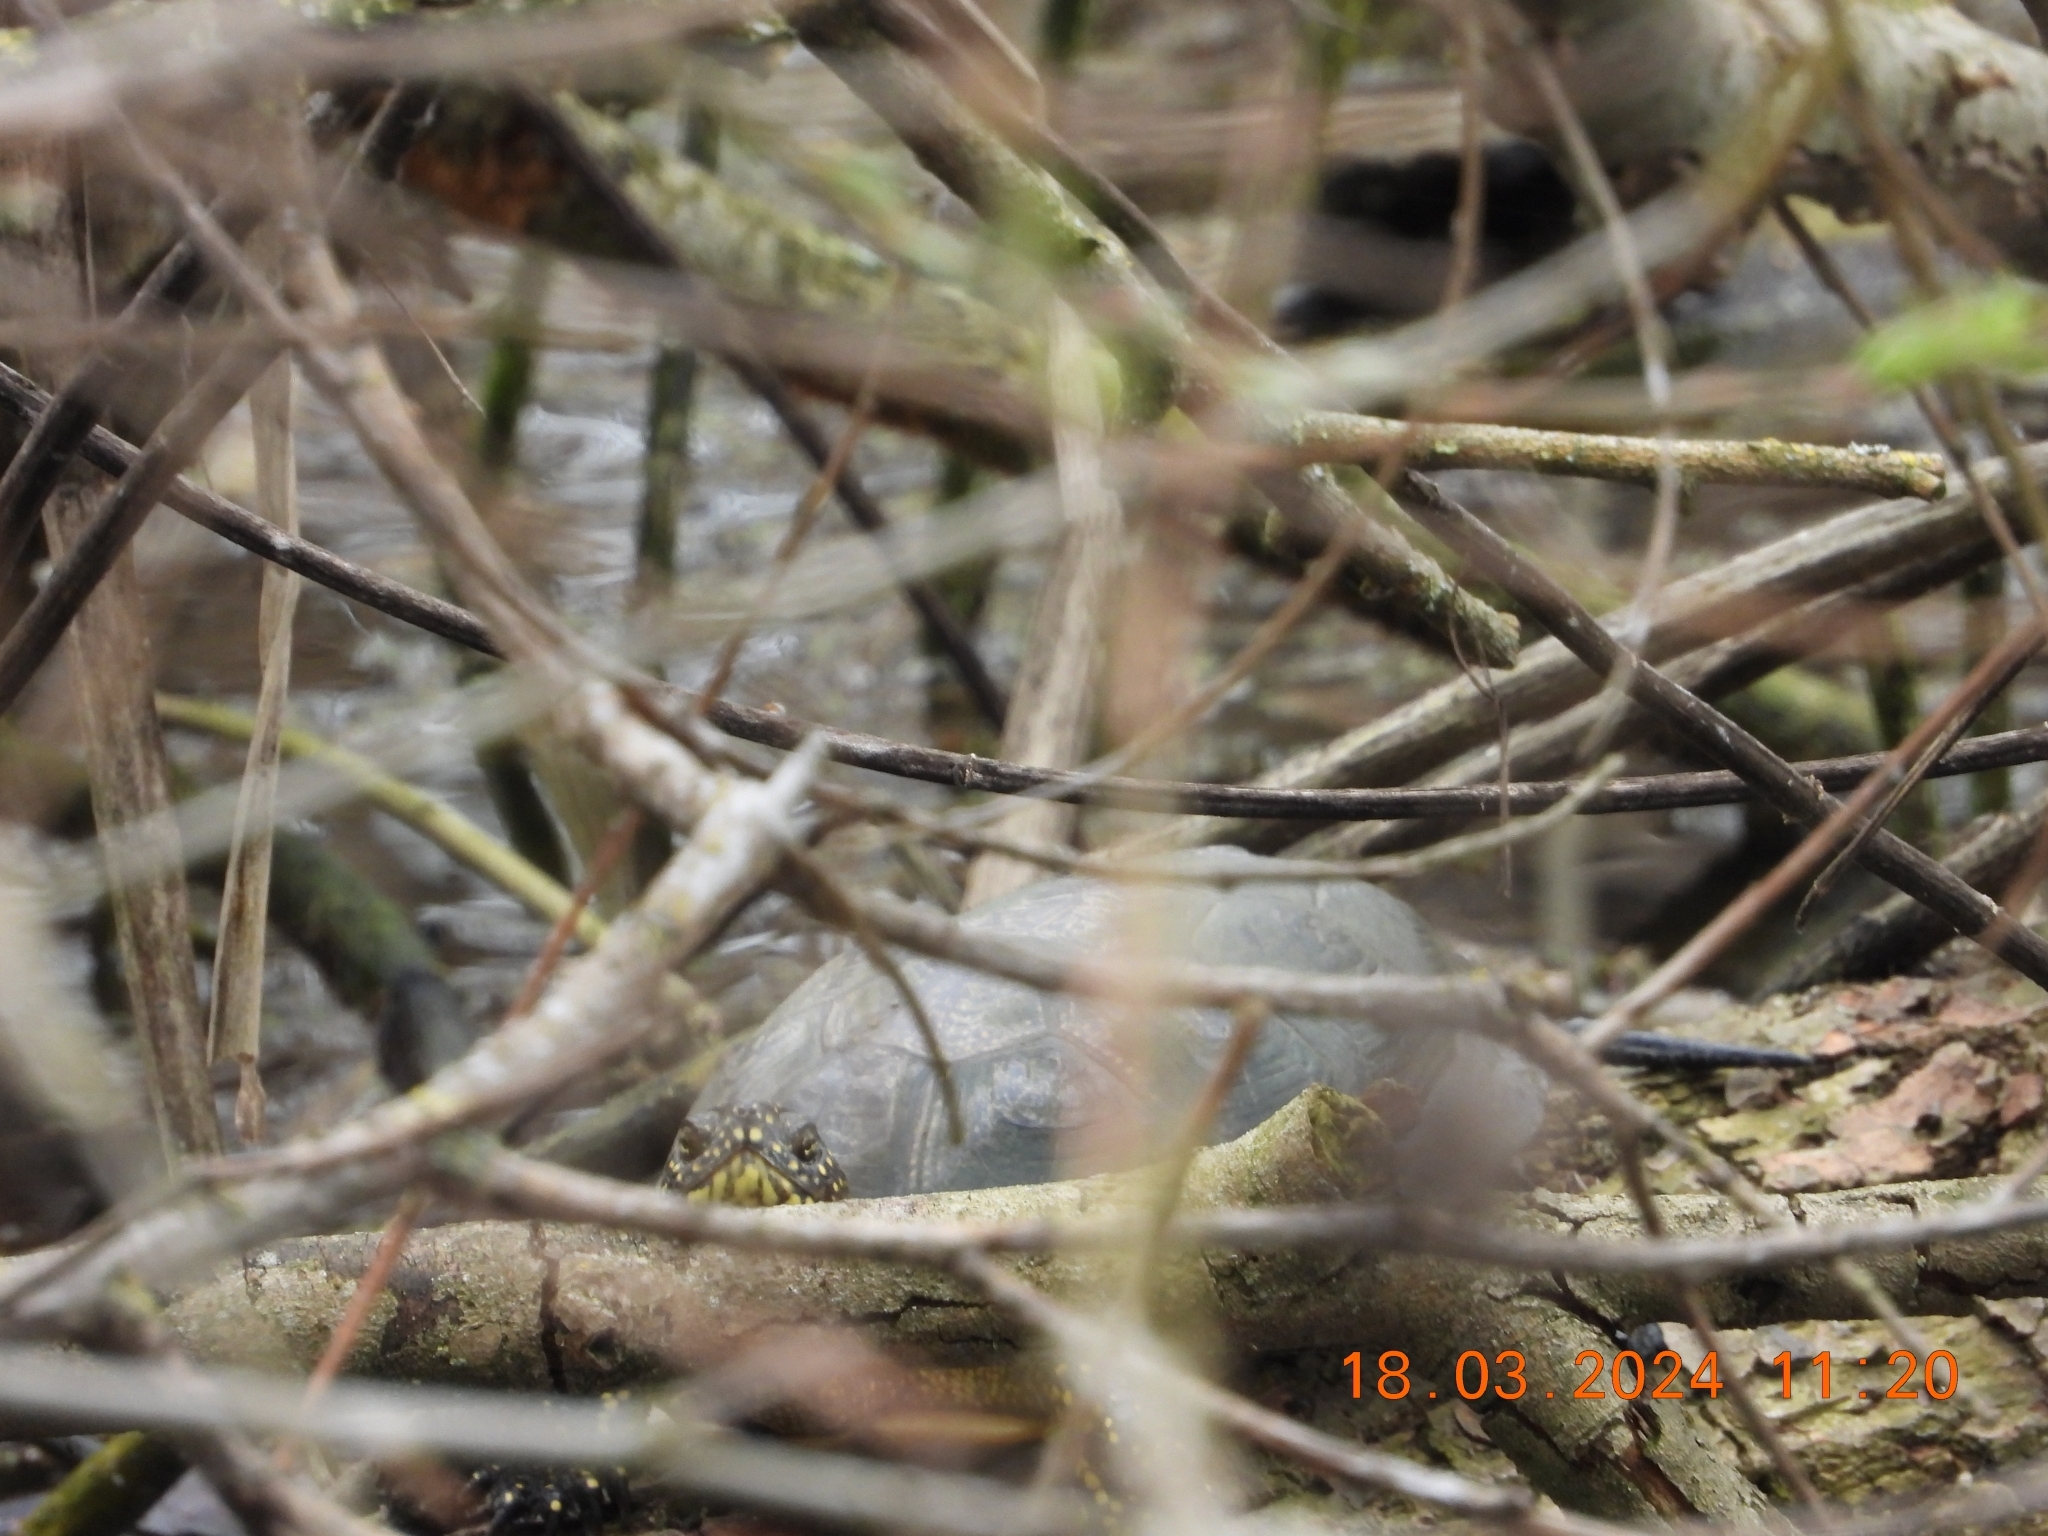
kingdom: Animalia
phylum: Chordata
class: Testudines
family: Emydidae
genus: Emys
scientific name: Emys orbicularis
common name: European pond turtle
